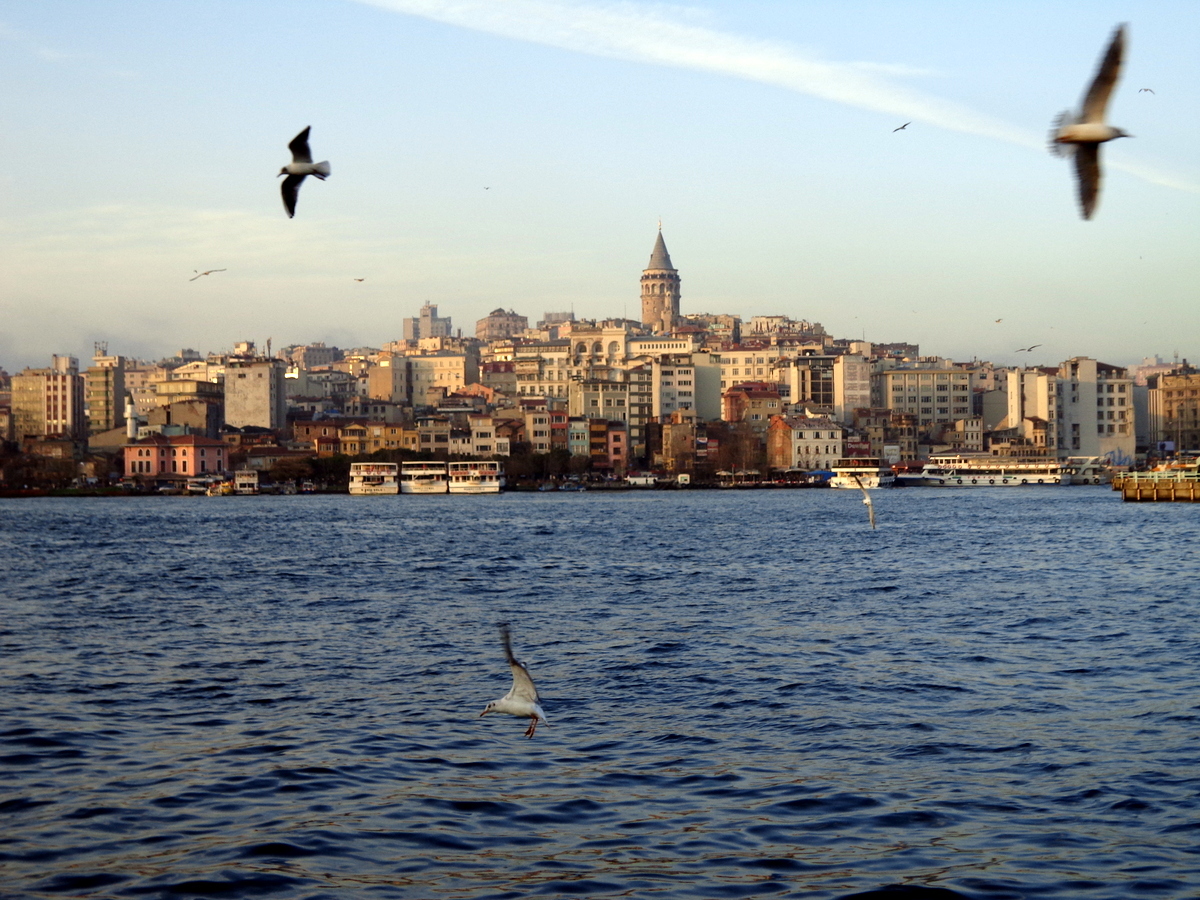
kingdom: Animalia
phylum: Chordata
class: Aves
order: Charadriiformes
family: Laridae
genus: Chroicocephalus
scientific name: Chroicocephalus ridibundus
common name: Black-headed gull
